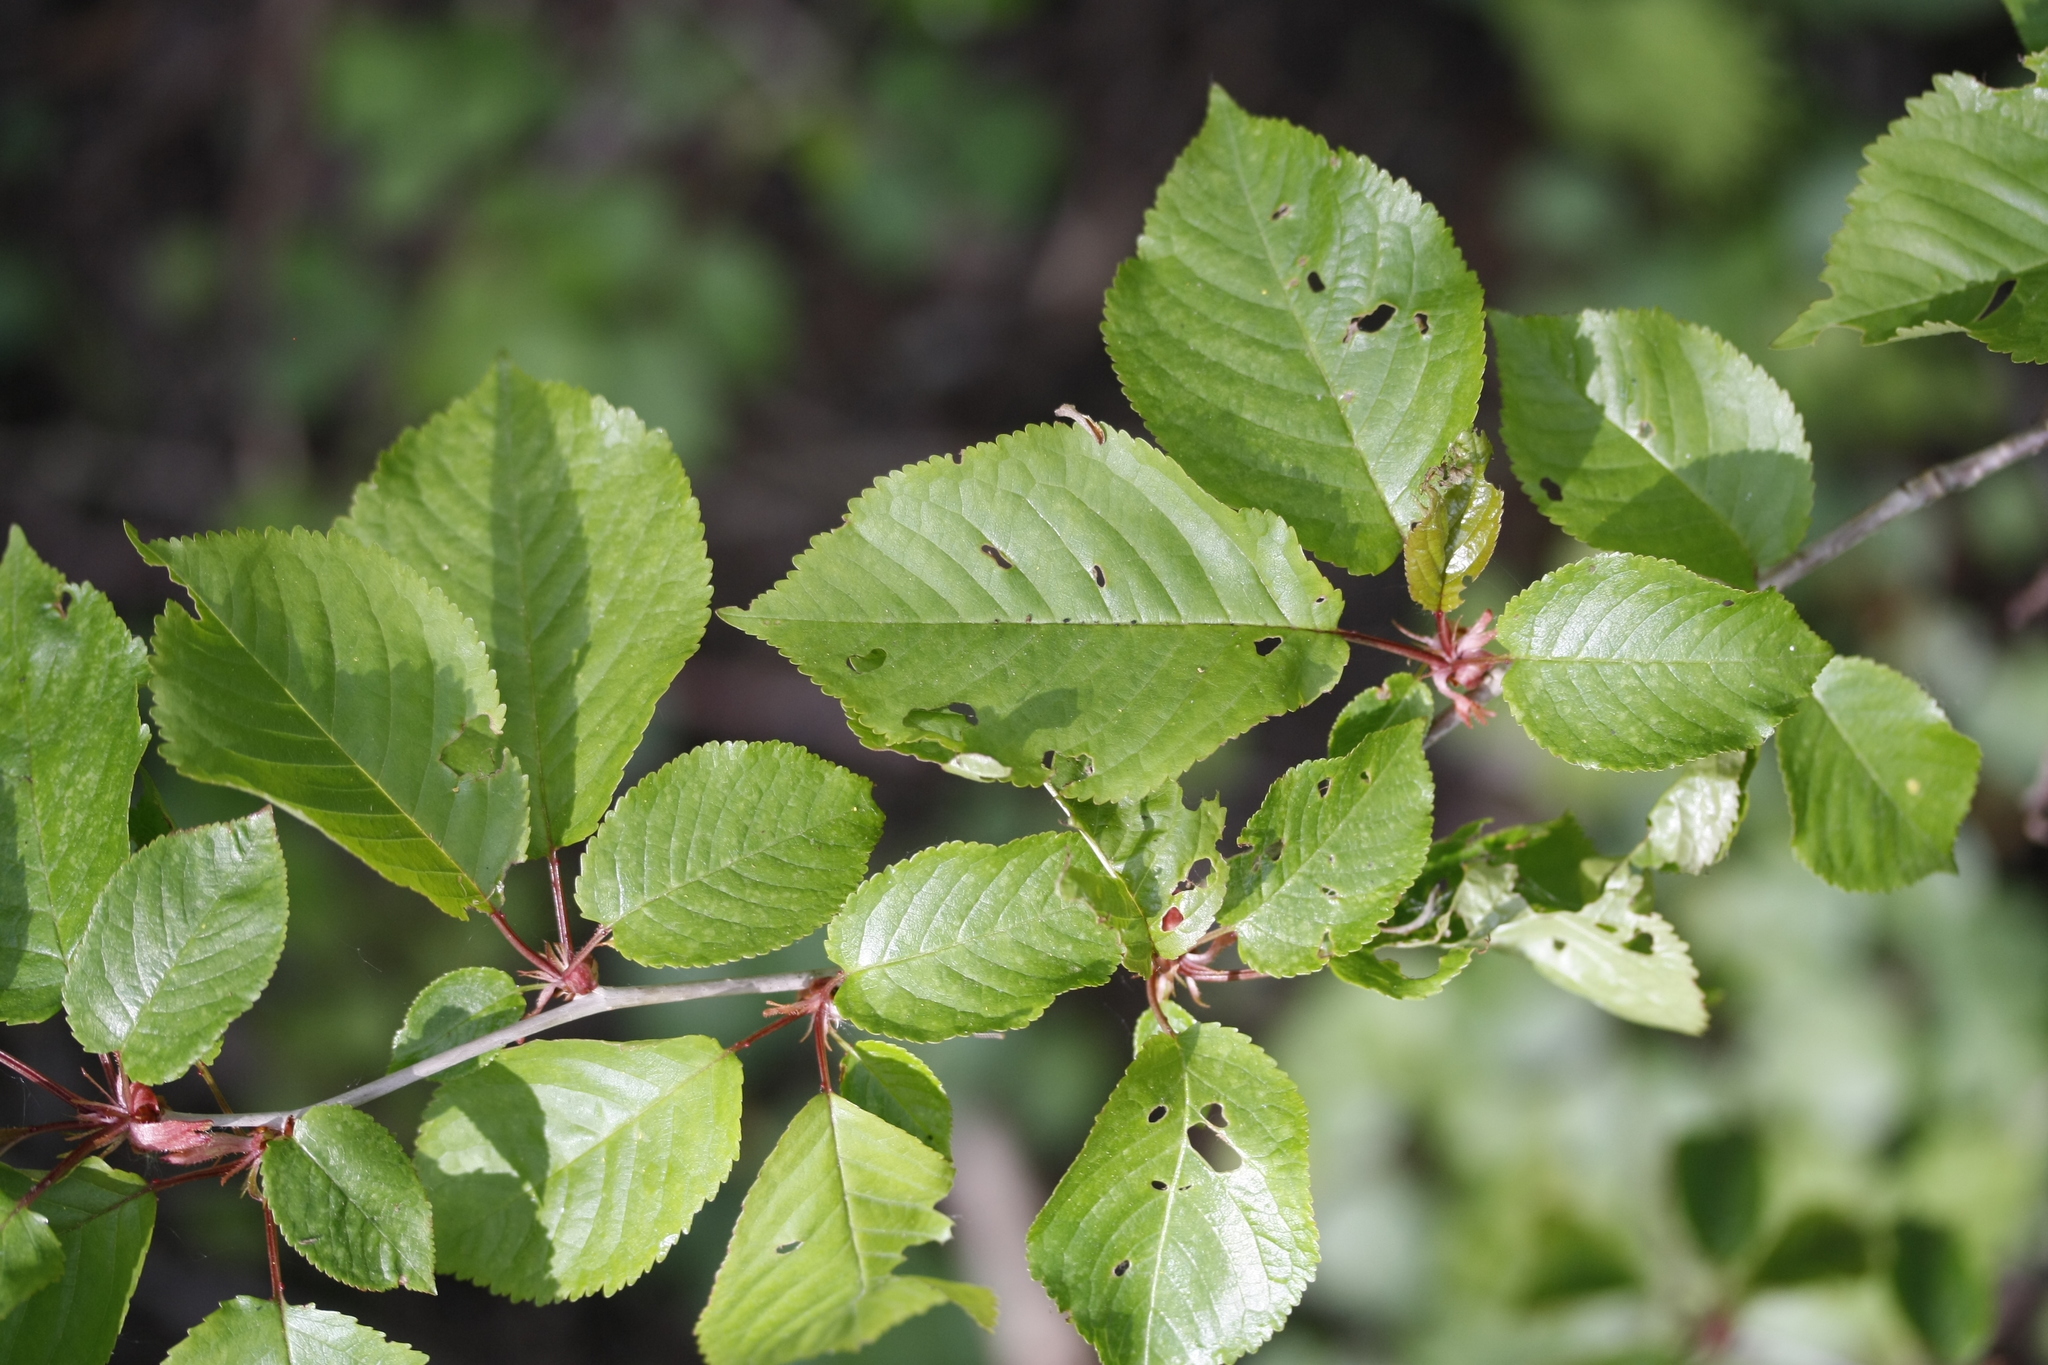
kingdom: Plantae
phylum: Tracheophyta
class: Magnoliopsida
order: Rosales
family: Rosaceae
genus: Prunus
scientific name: Prunus avium
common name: Sweet cherry
